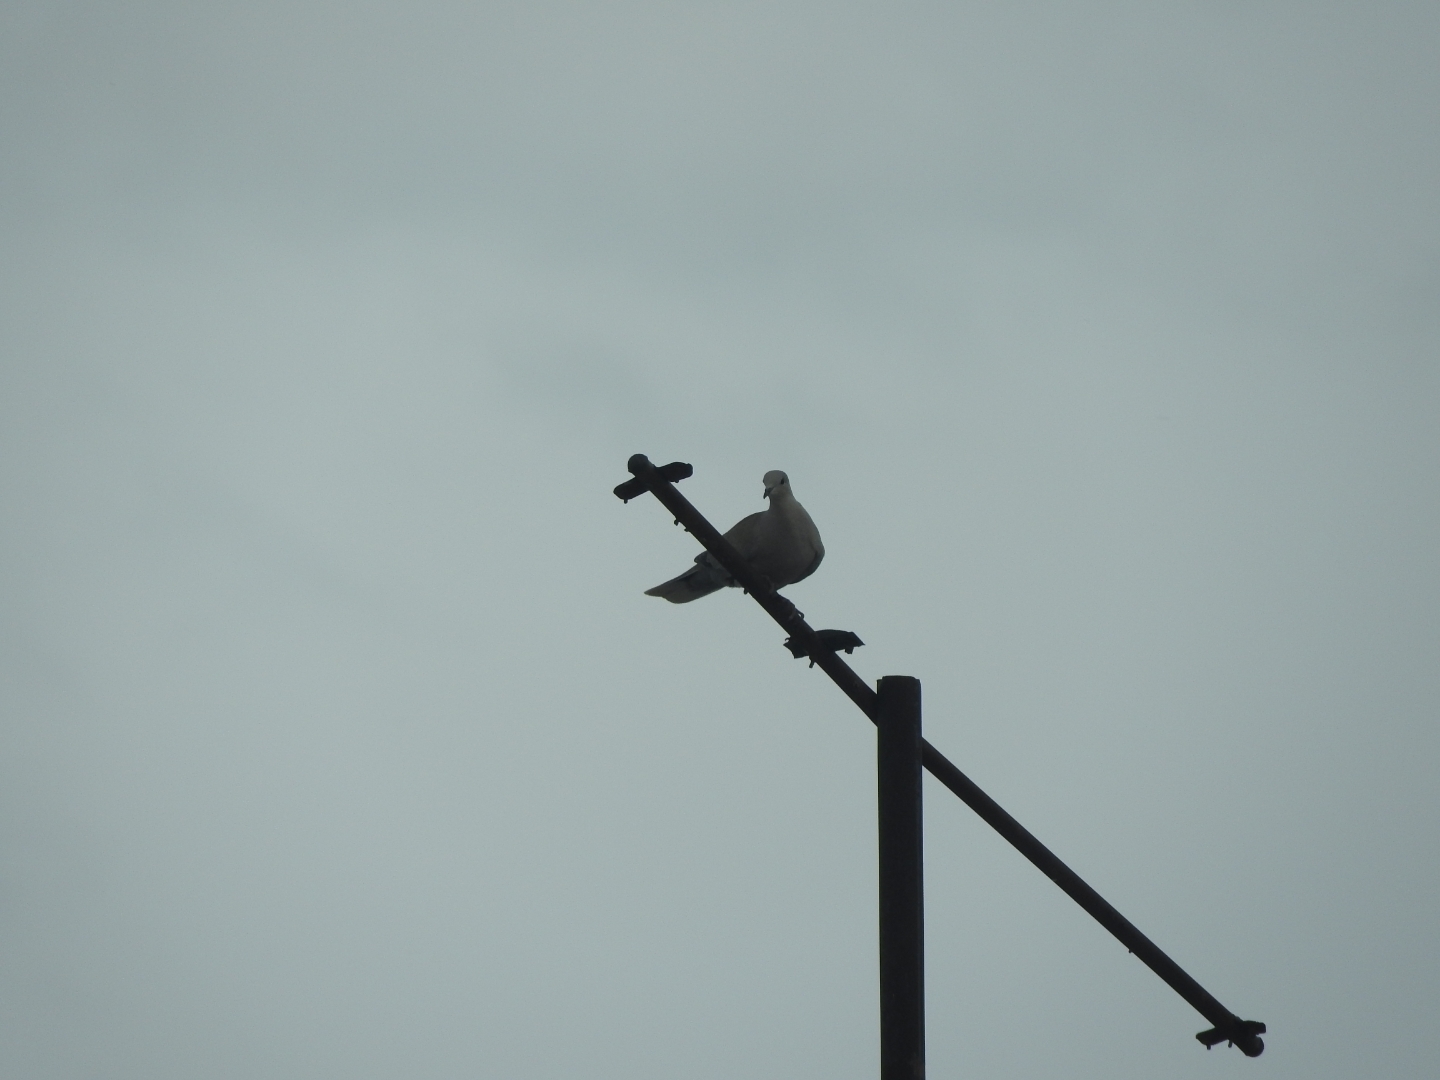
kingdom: Animalia
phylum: Chordata
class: Aves
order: Columbiformes
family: Columbidae
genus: Streptopelia
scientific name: Streptopelia decaocto
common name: Eurasian collared dove
